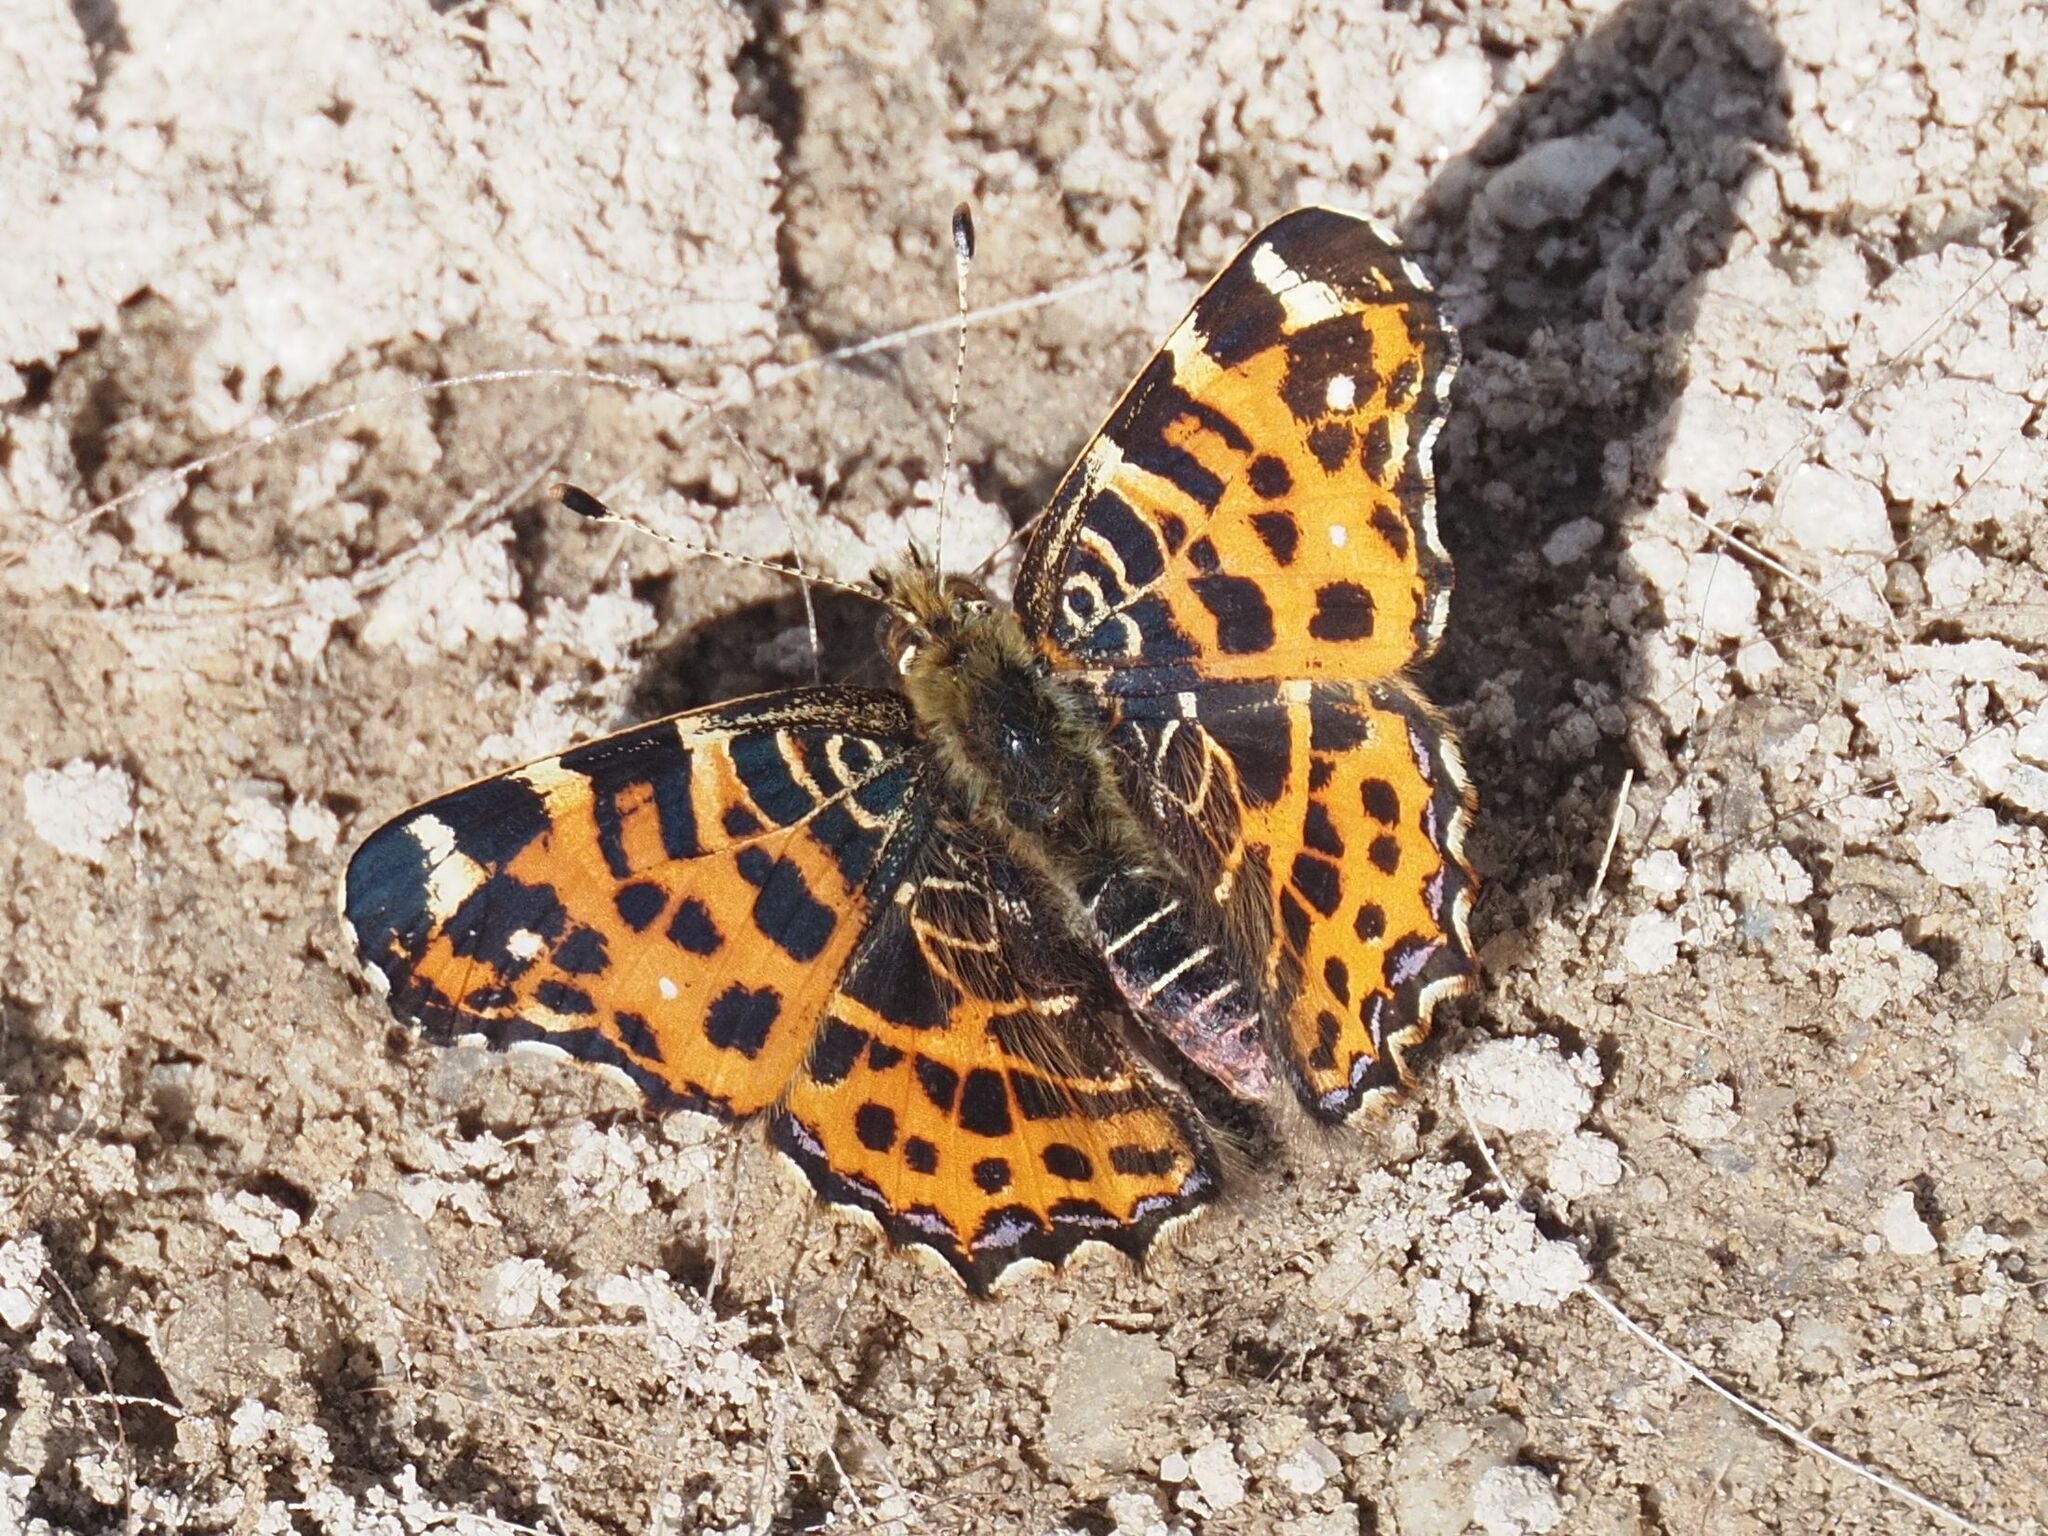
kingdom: Animalia
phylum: Arthropoda
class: Insecta
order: Lepidoptera
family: Nymphalidae
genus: Araschnia
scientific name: Araschnia levana
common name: Map butterfly
